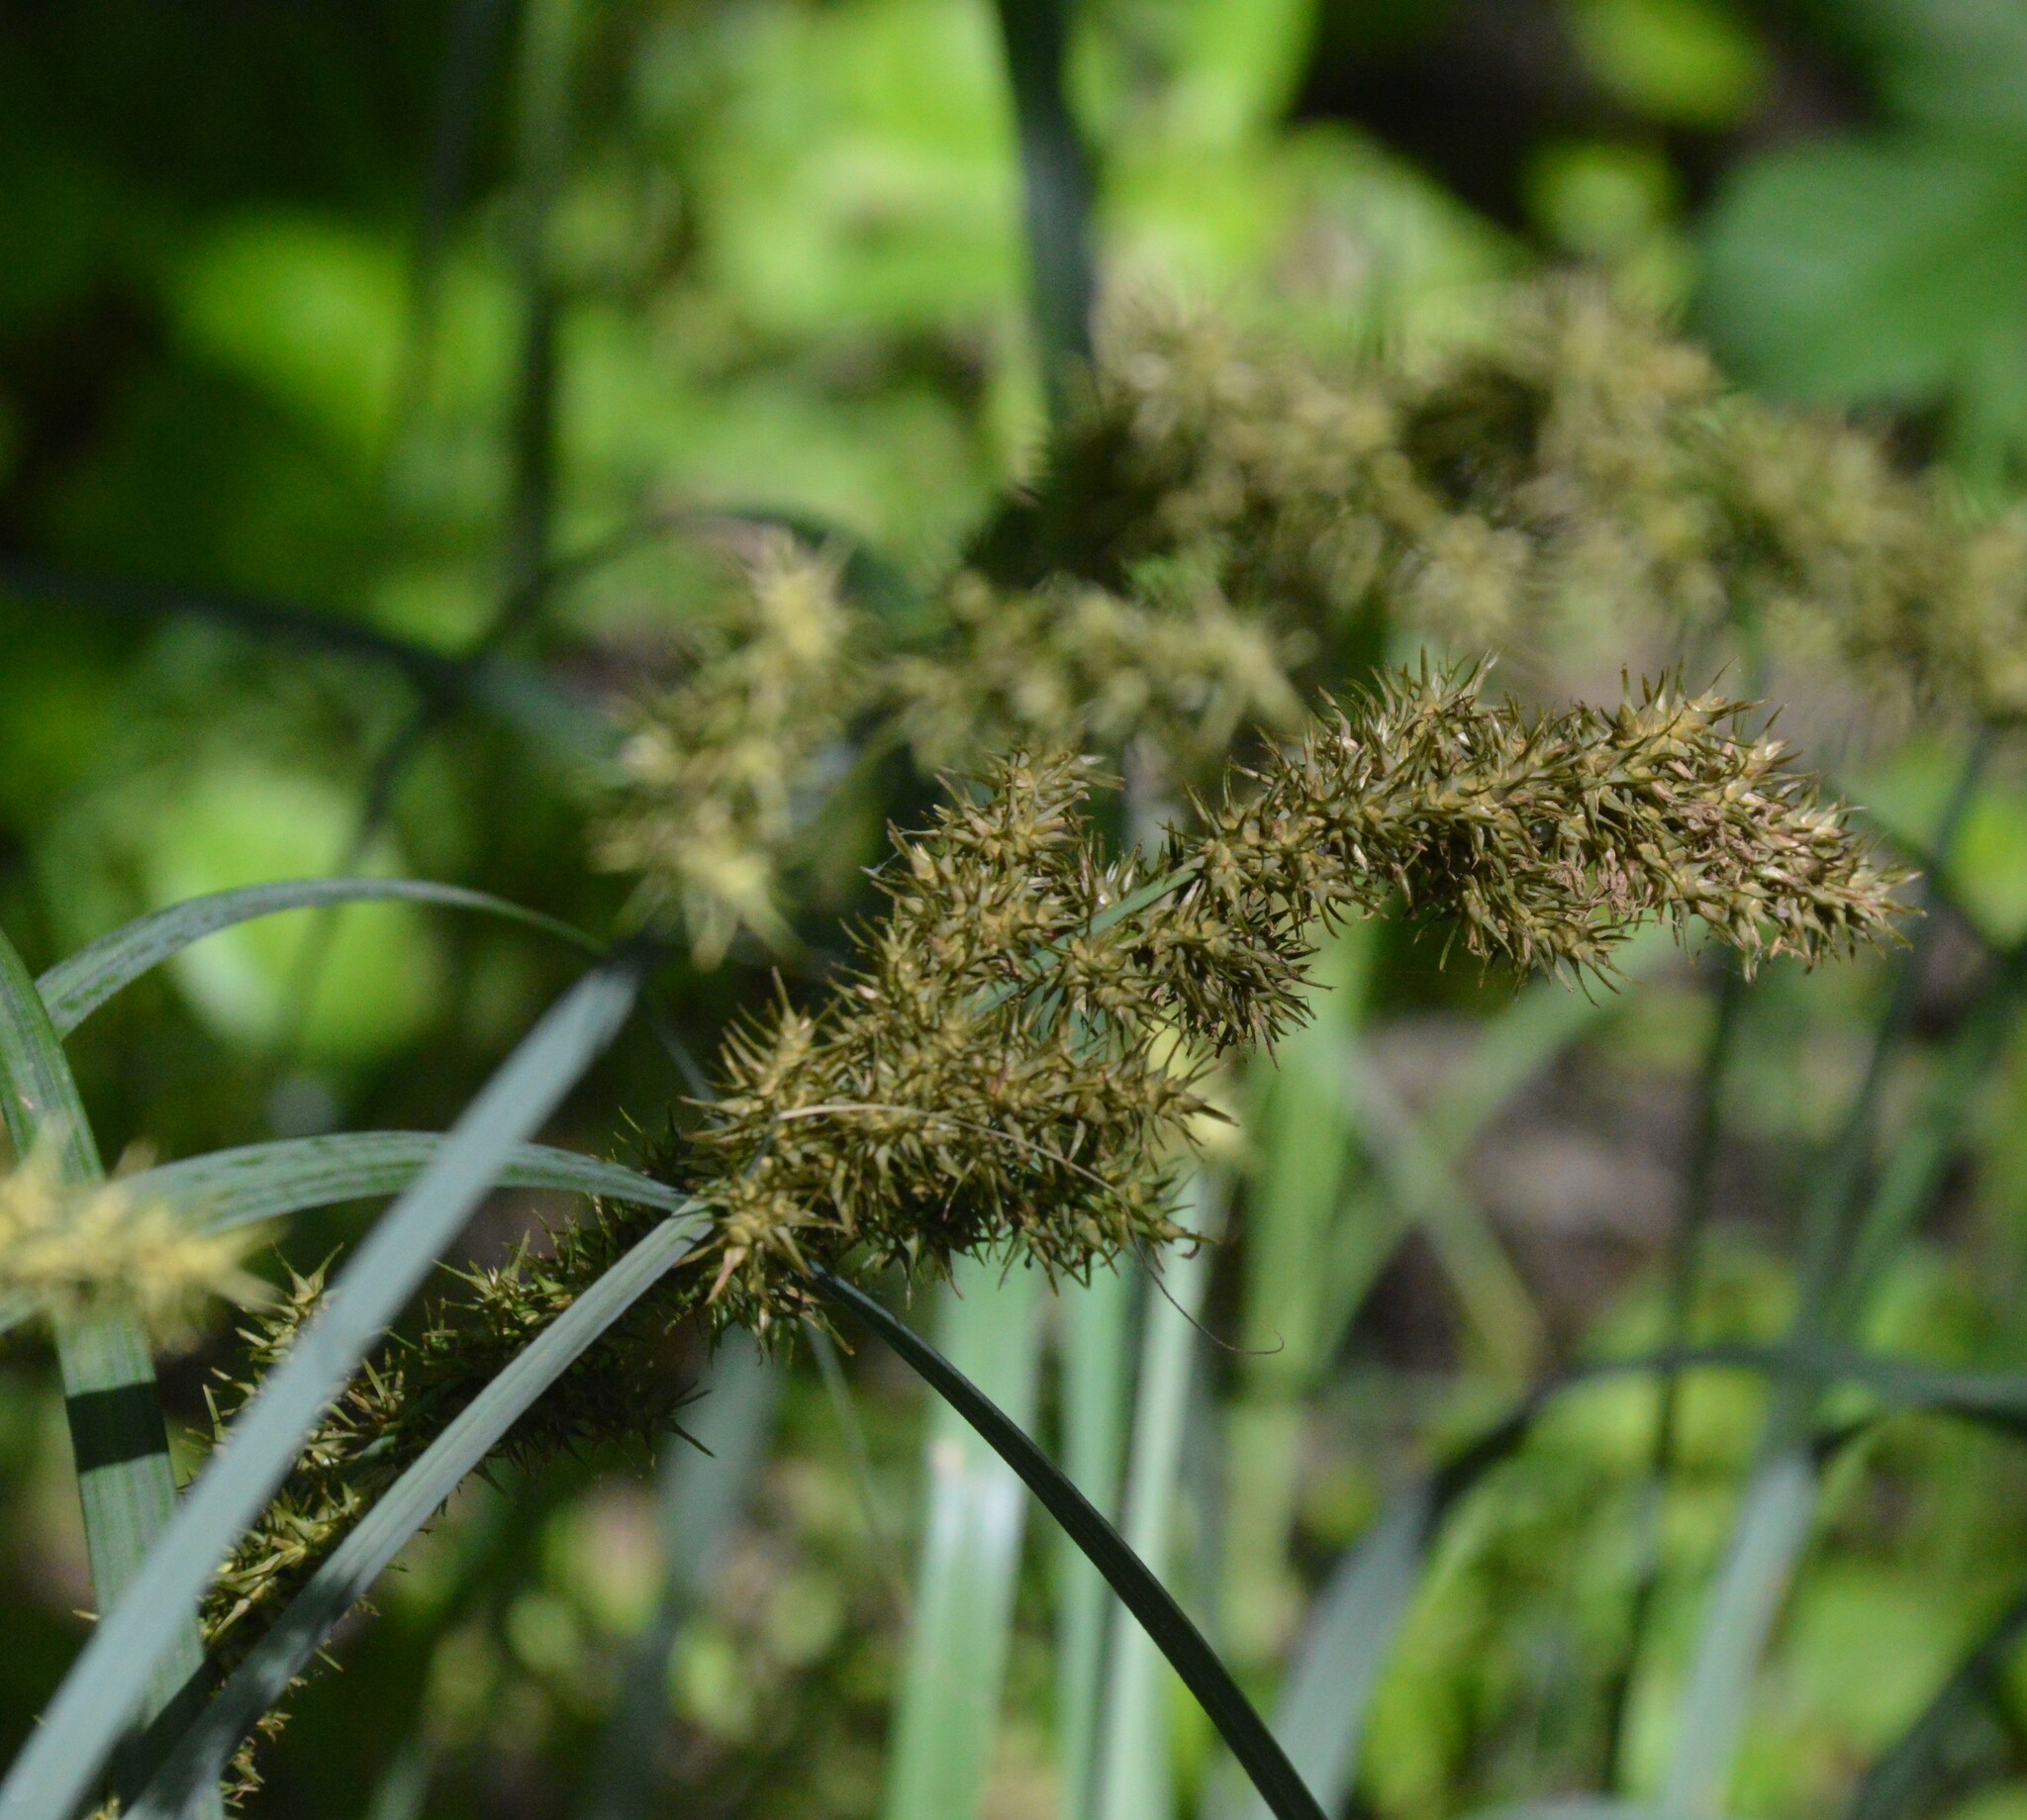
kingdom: Plantae
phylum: Tracheophyta
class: Liliopsida
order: Poales
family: Cyperaceae
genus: Carex
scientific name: Carex crus-corvi
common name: Crow-spur sedge
